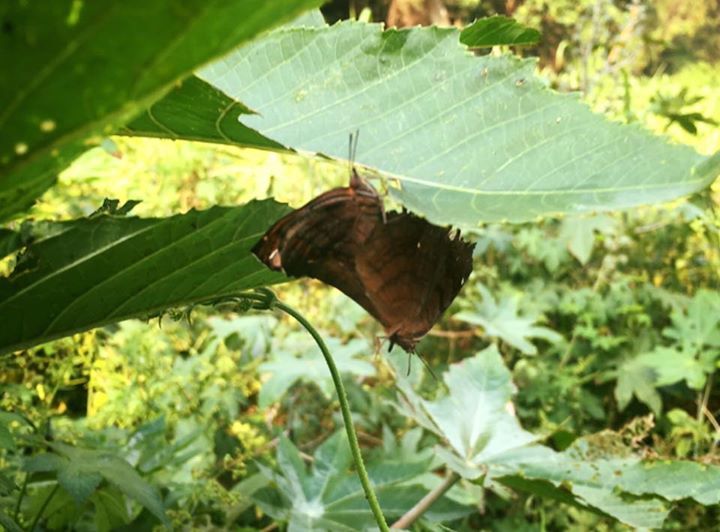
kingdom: Animalia
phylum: Arthropoda
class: Insecta
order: Lepidoptera
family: Nymphalidae
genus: Ariadne
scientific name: Ariadne ariadne
